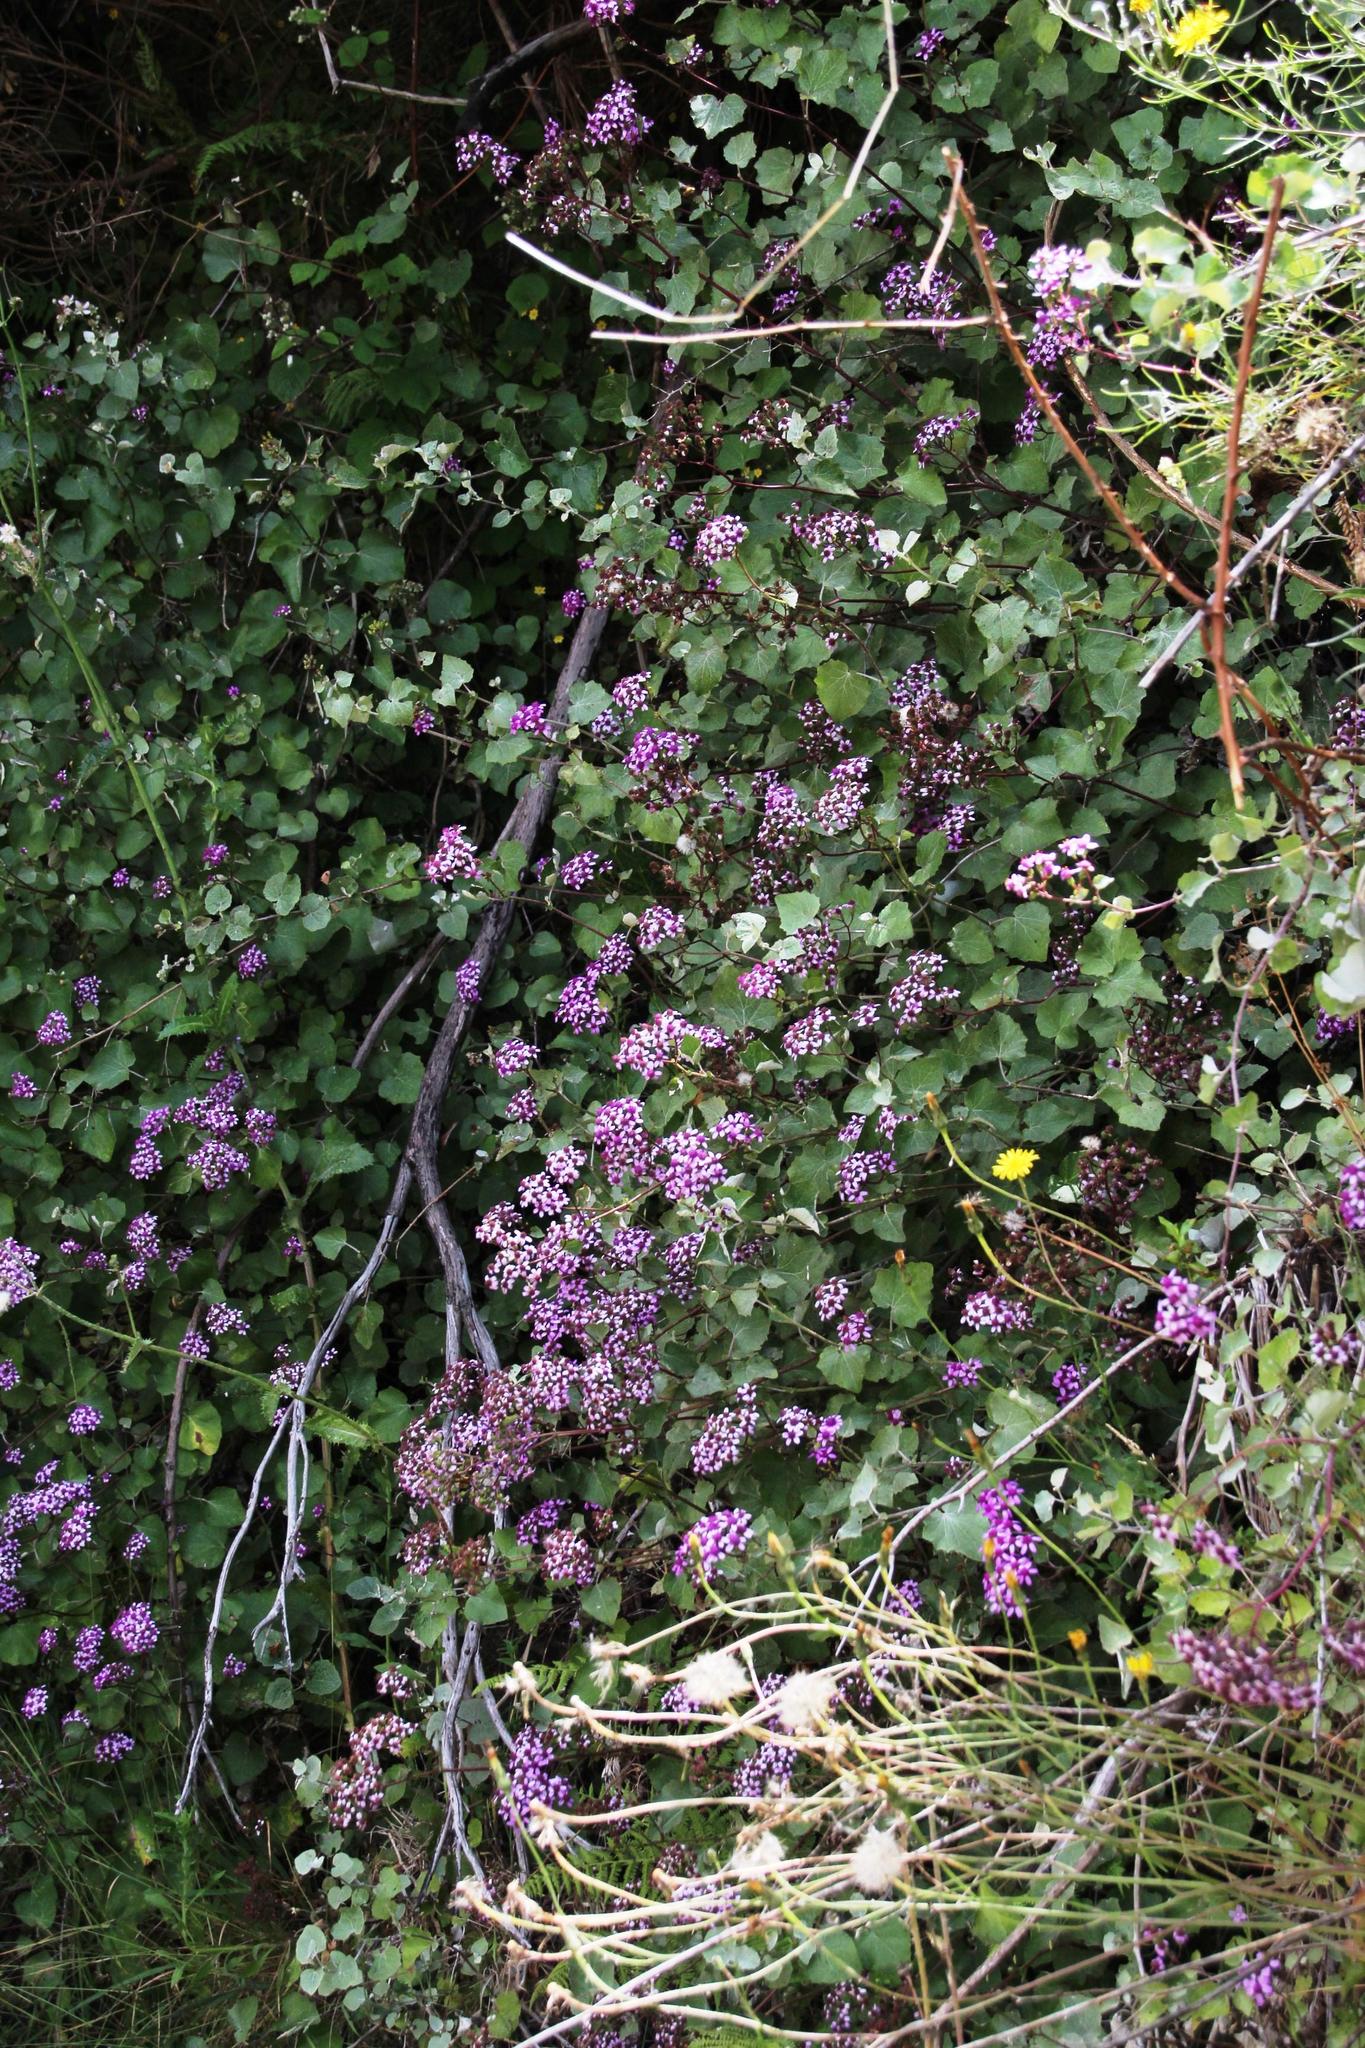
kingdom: Plantae
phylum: Tracheophyta
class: Magnoliopsida
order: Asterales
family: Asteraceae
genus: Pericallis
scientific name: Pericallis aurita
